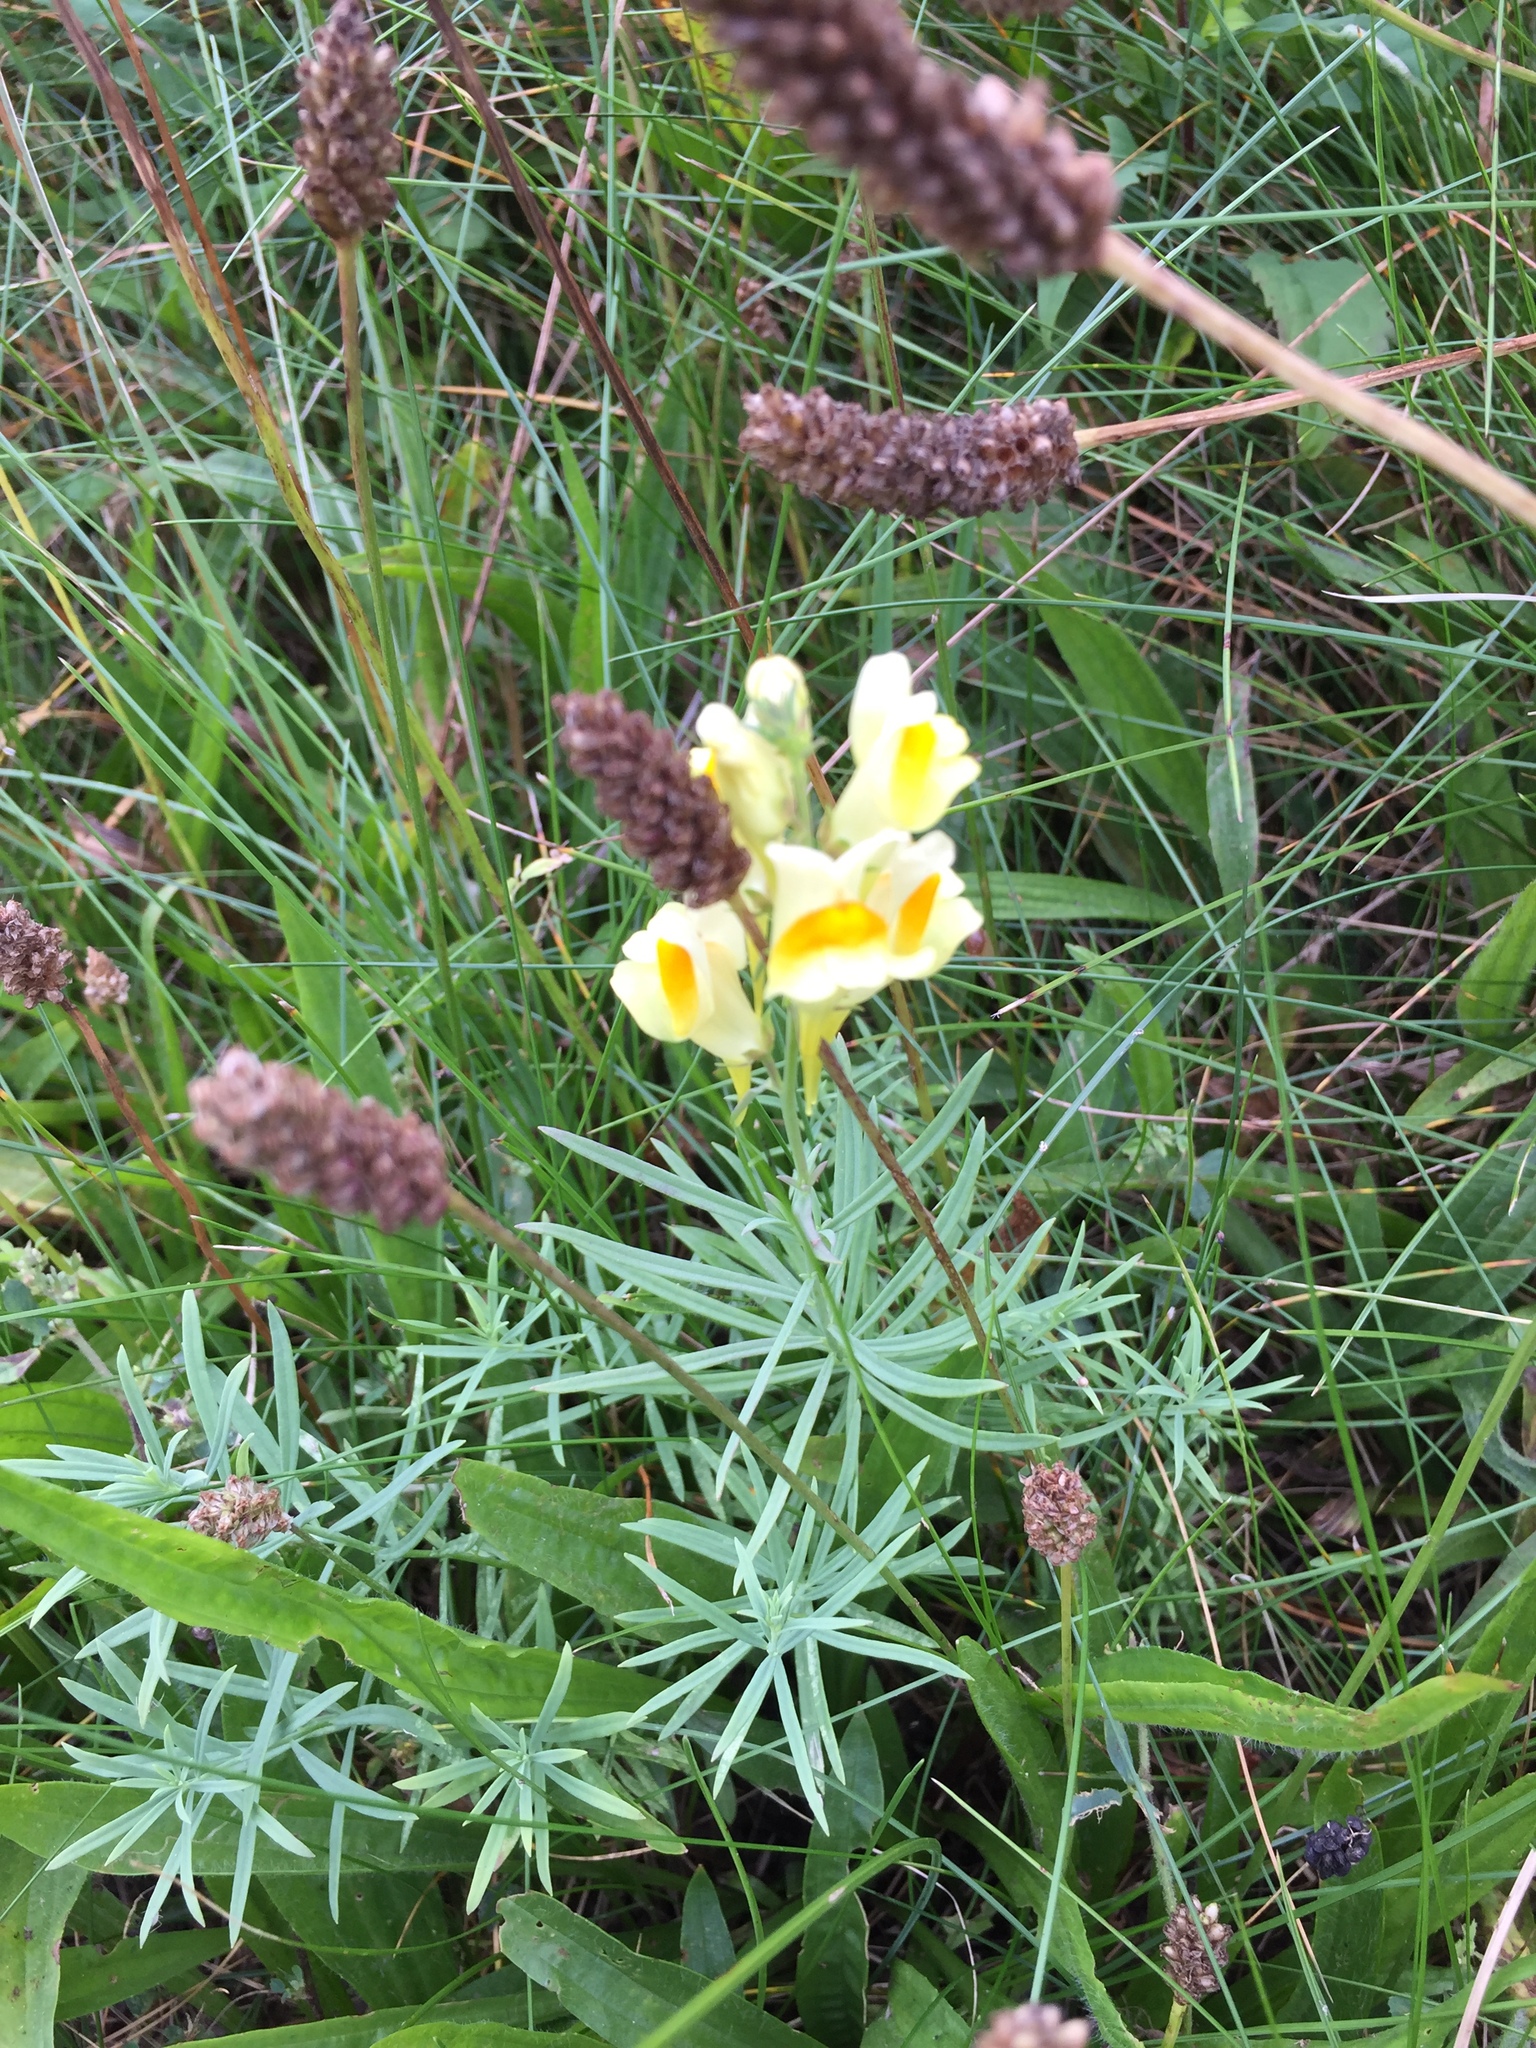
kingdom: Plantae
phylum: Tracheophyta
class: Magnoliopsida
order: Lamiales
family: Plantaginaceae
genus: Linaria
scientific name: Linaria vulgaris
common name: Butter and eggs
